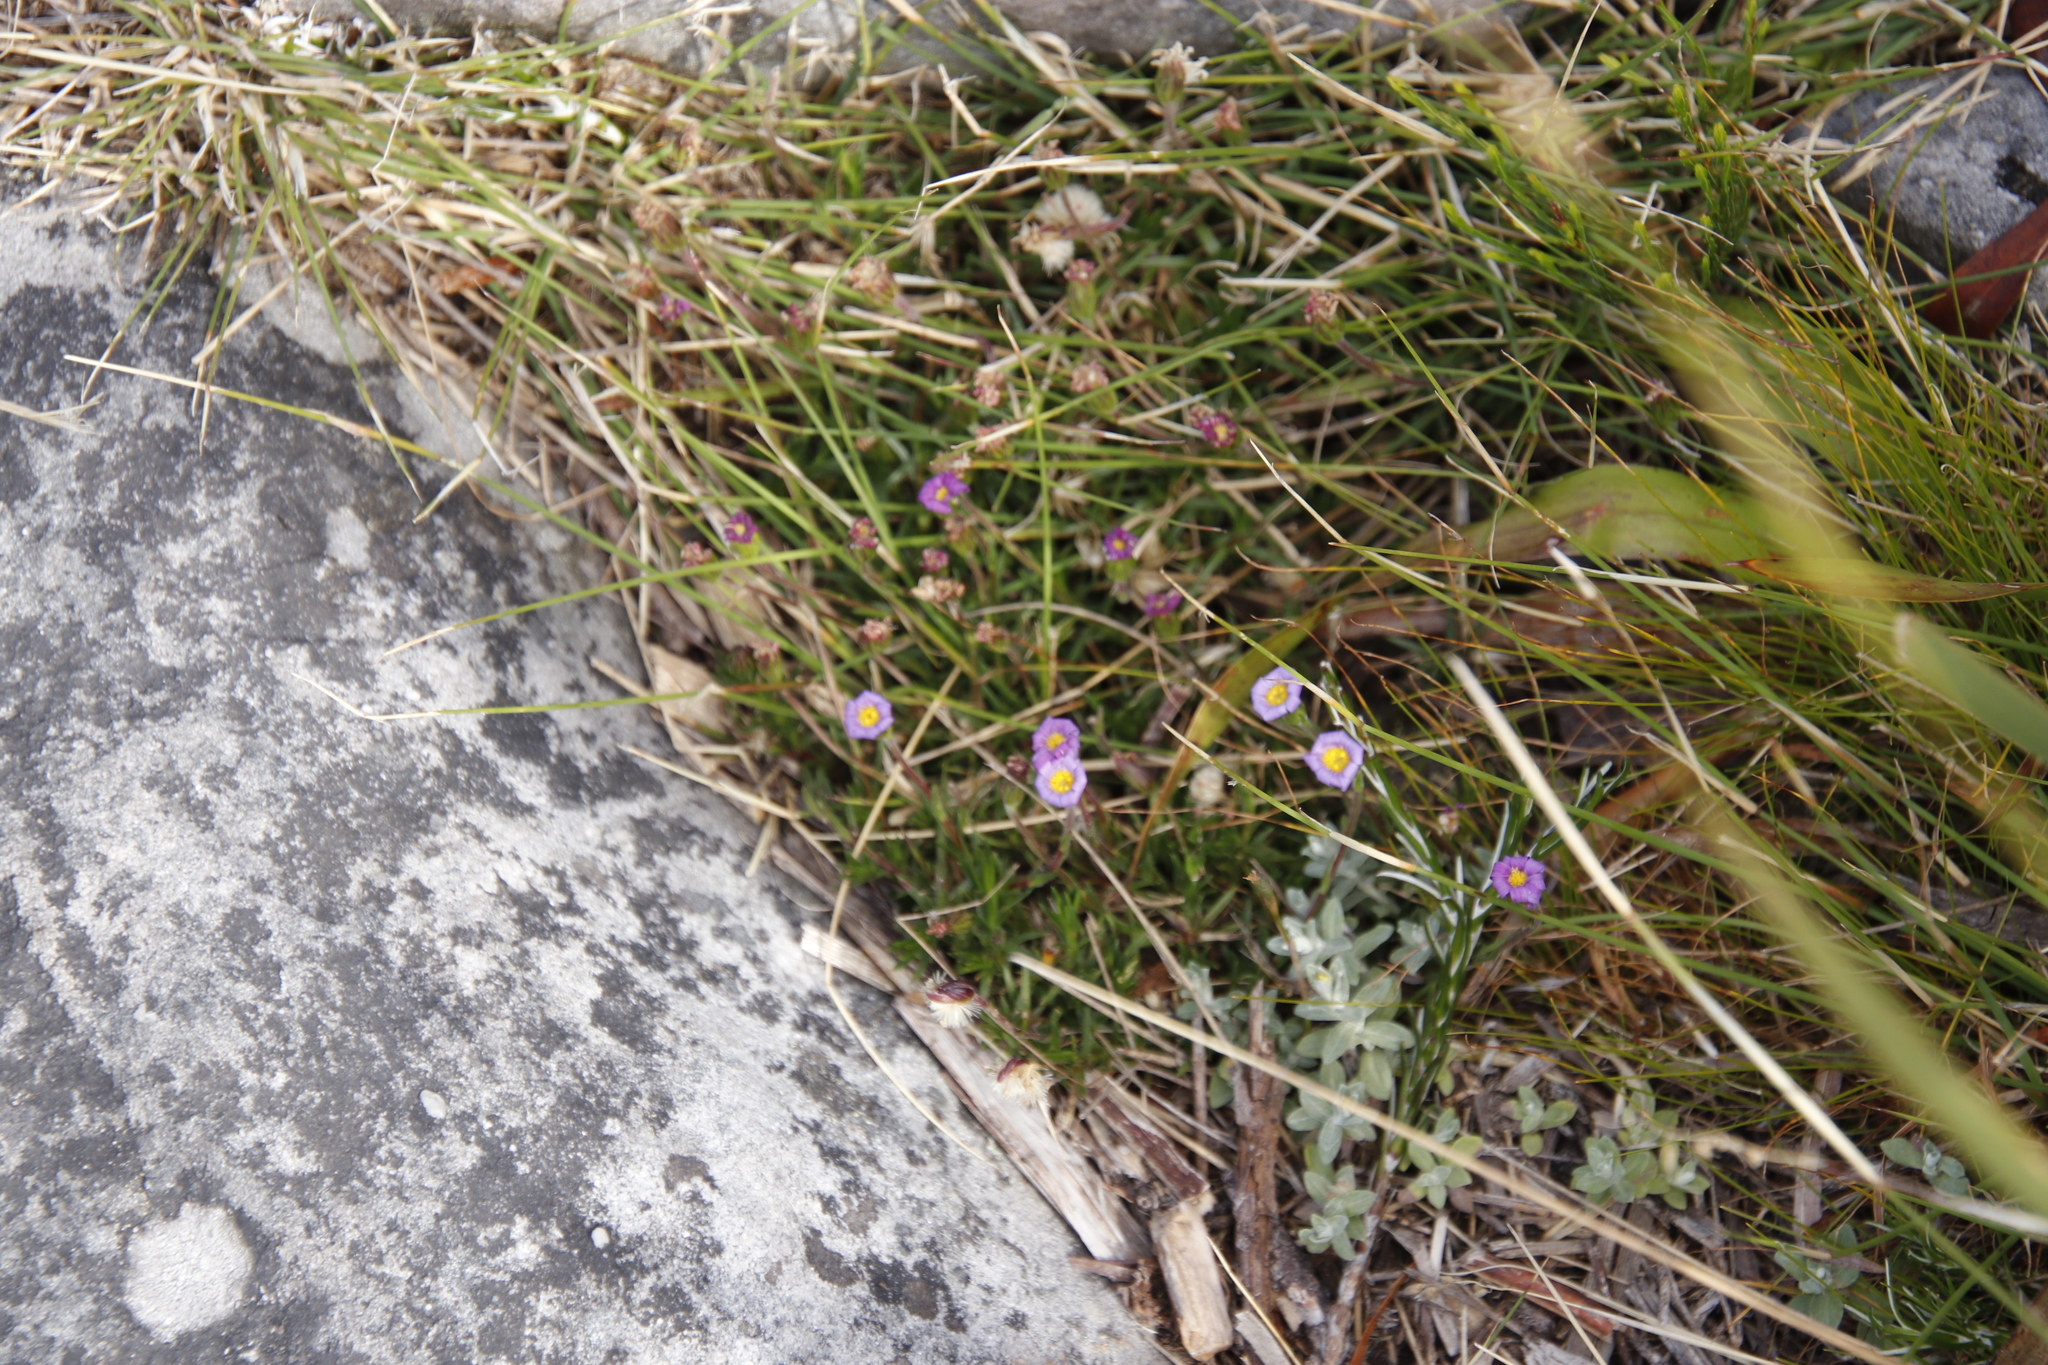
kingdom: Plantae
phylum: Tracheophyta
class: Magnoliopsida
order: Asterales
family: Asteraceae
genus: Zyrphelis
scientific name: Zyrphelis taxifolia
